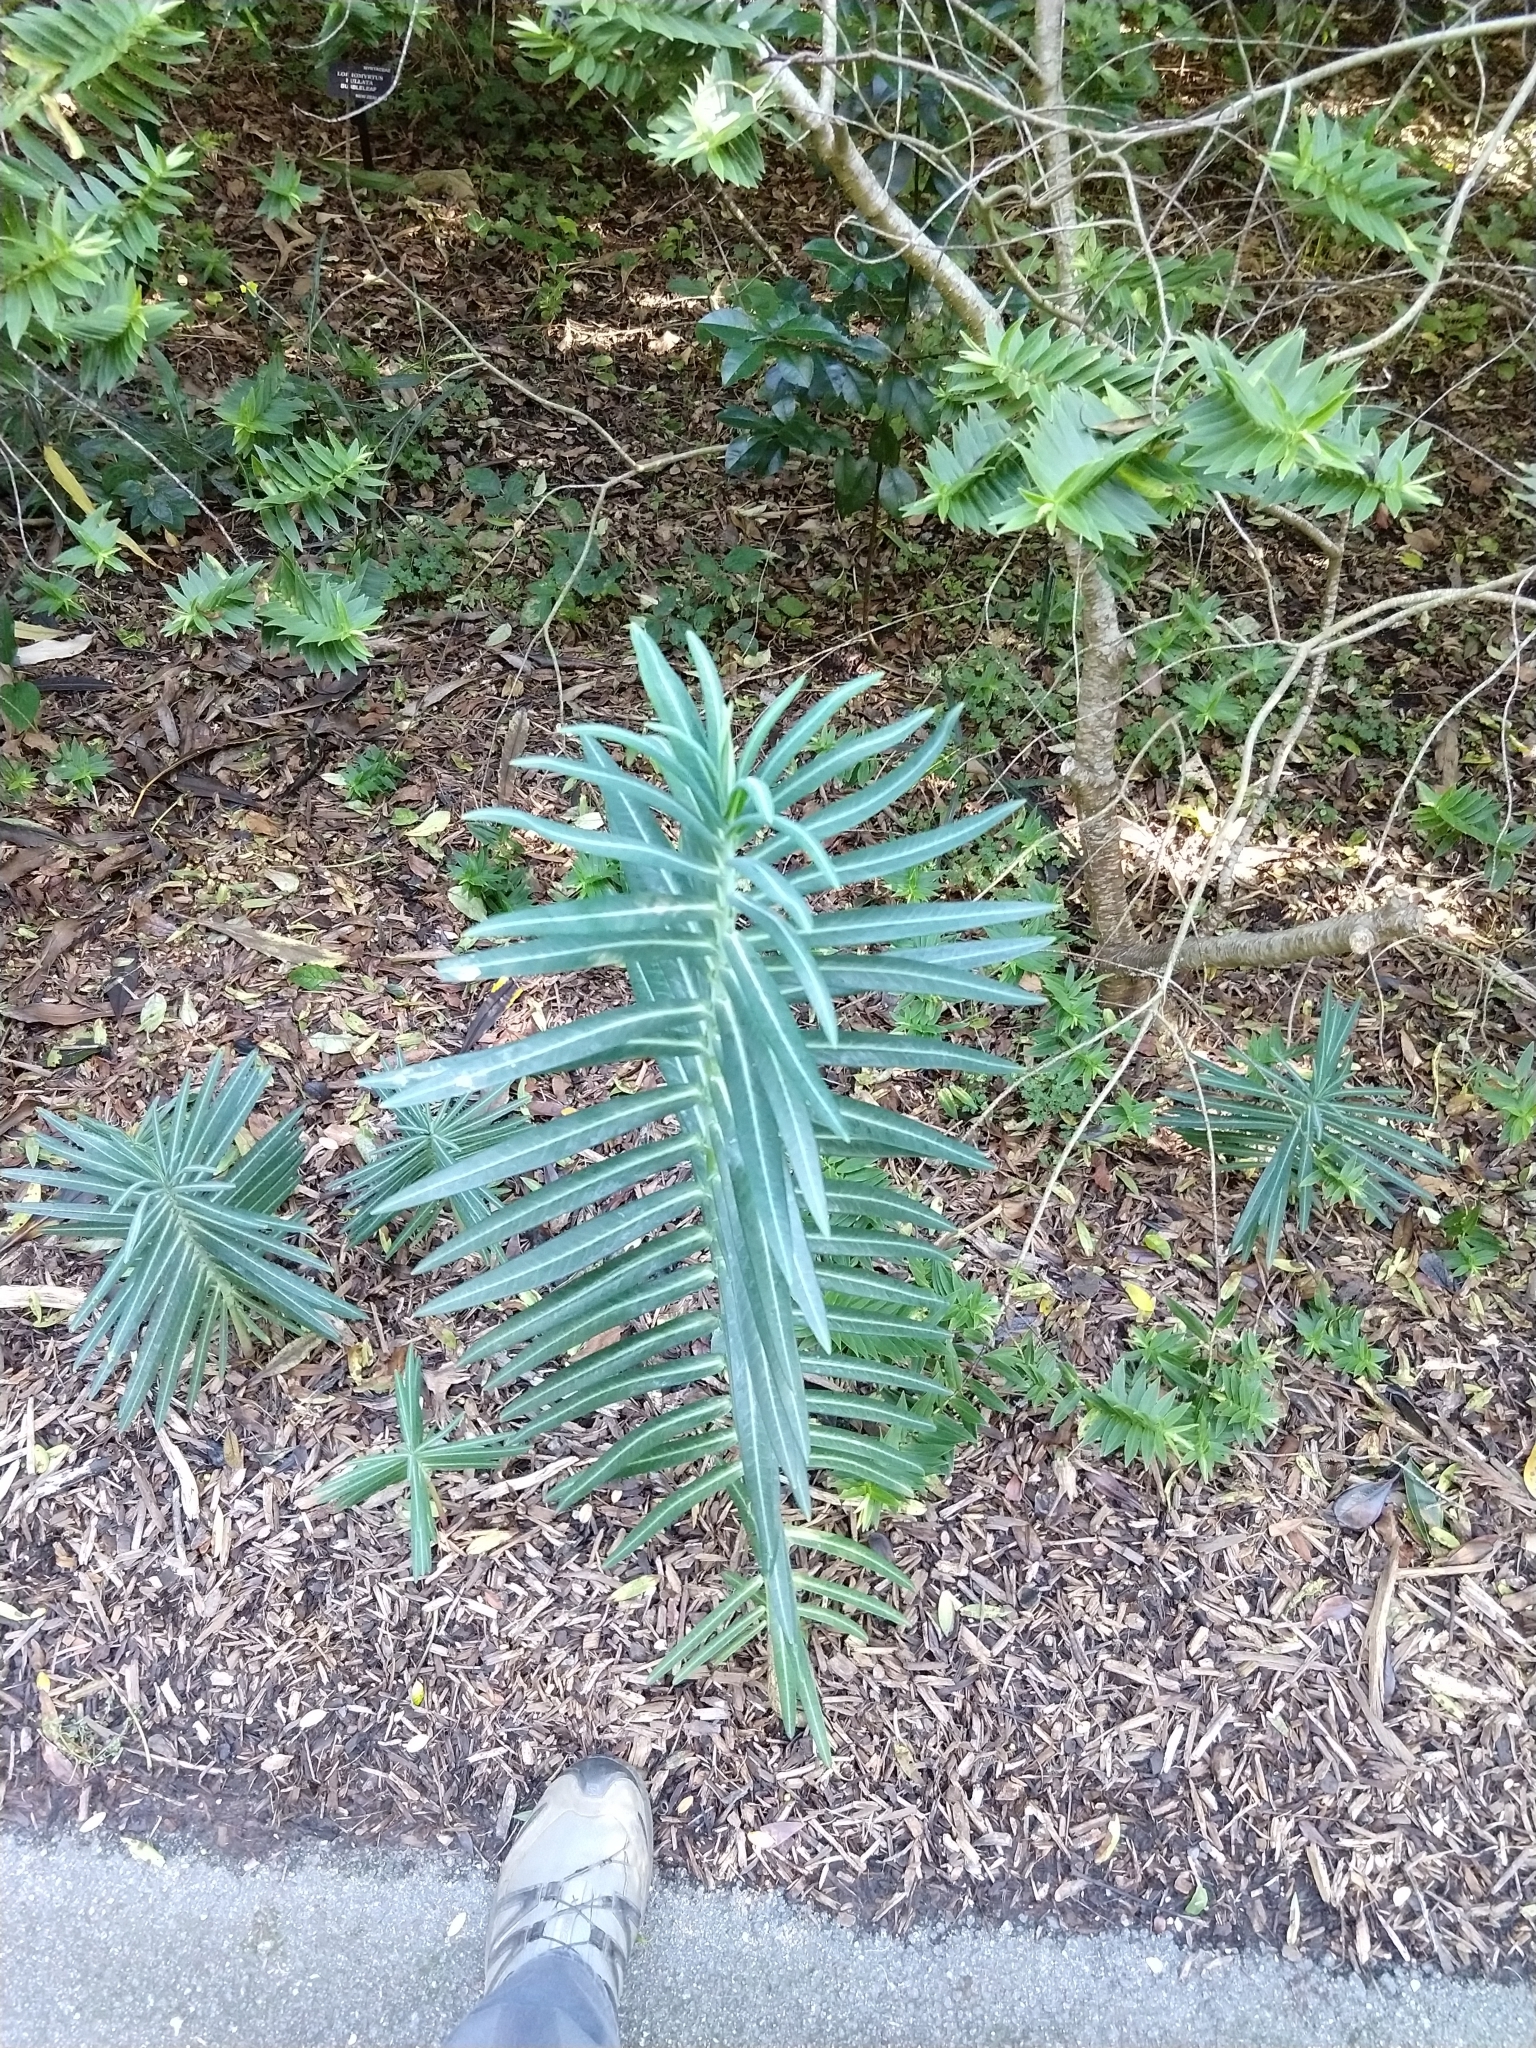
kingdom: Plantae
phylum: Tracheophyta
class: Magnoliopsida
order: Malpighiales
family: Euphorbiaceae
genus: Euphorbia
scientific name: Euphorbia lathyris
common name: Caper spurge
